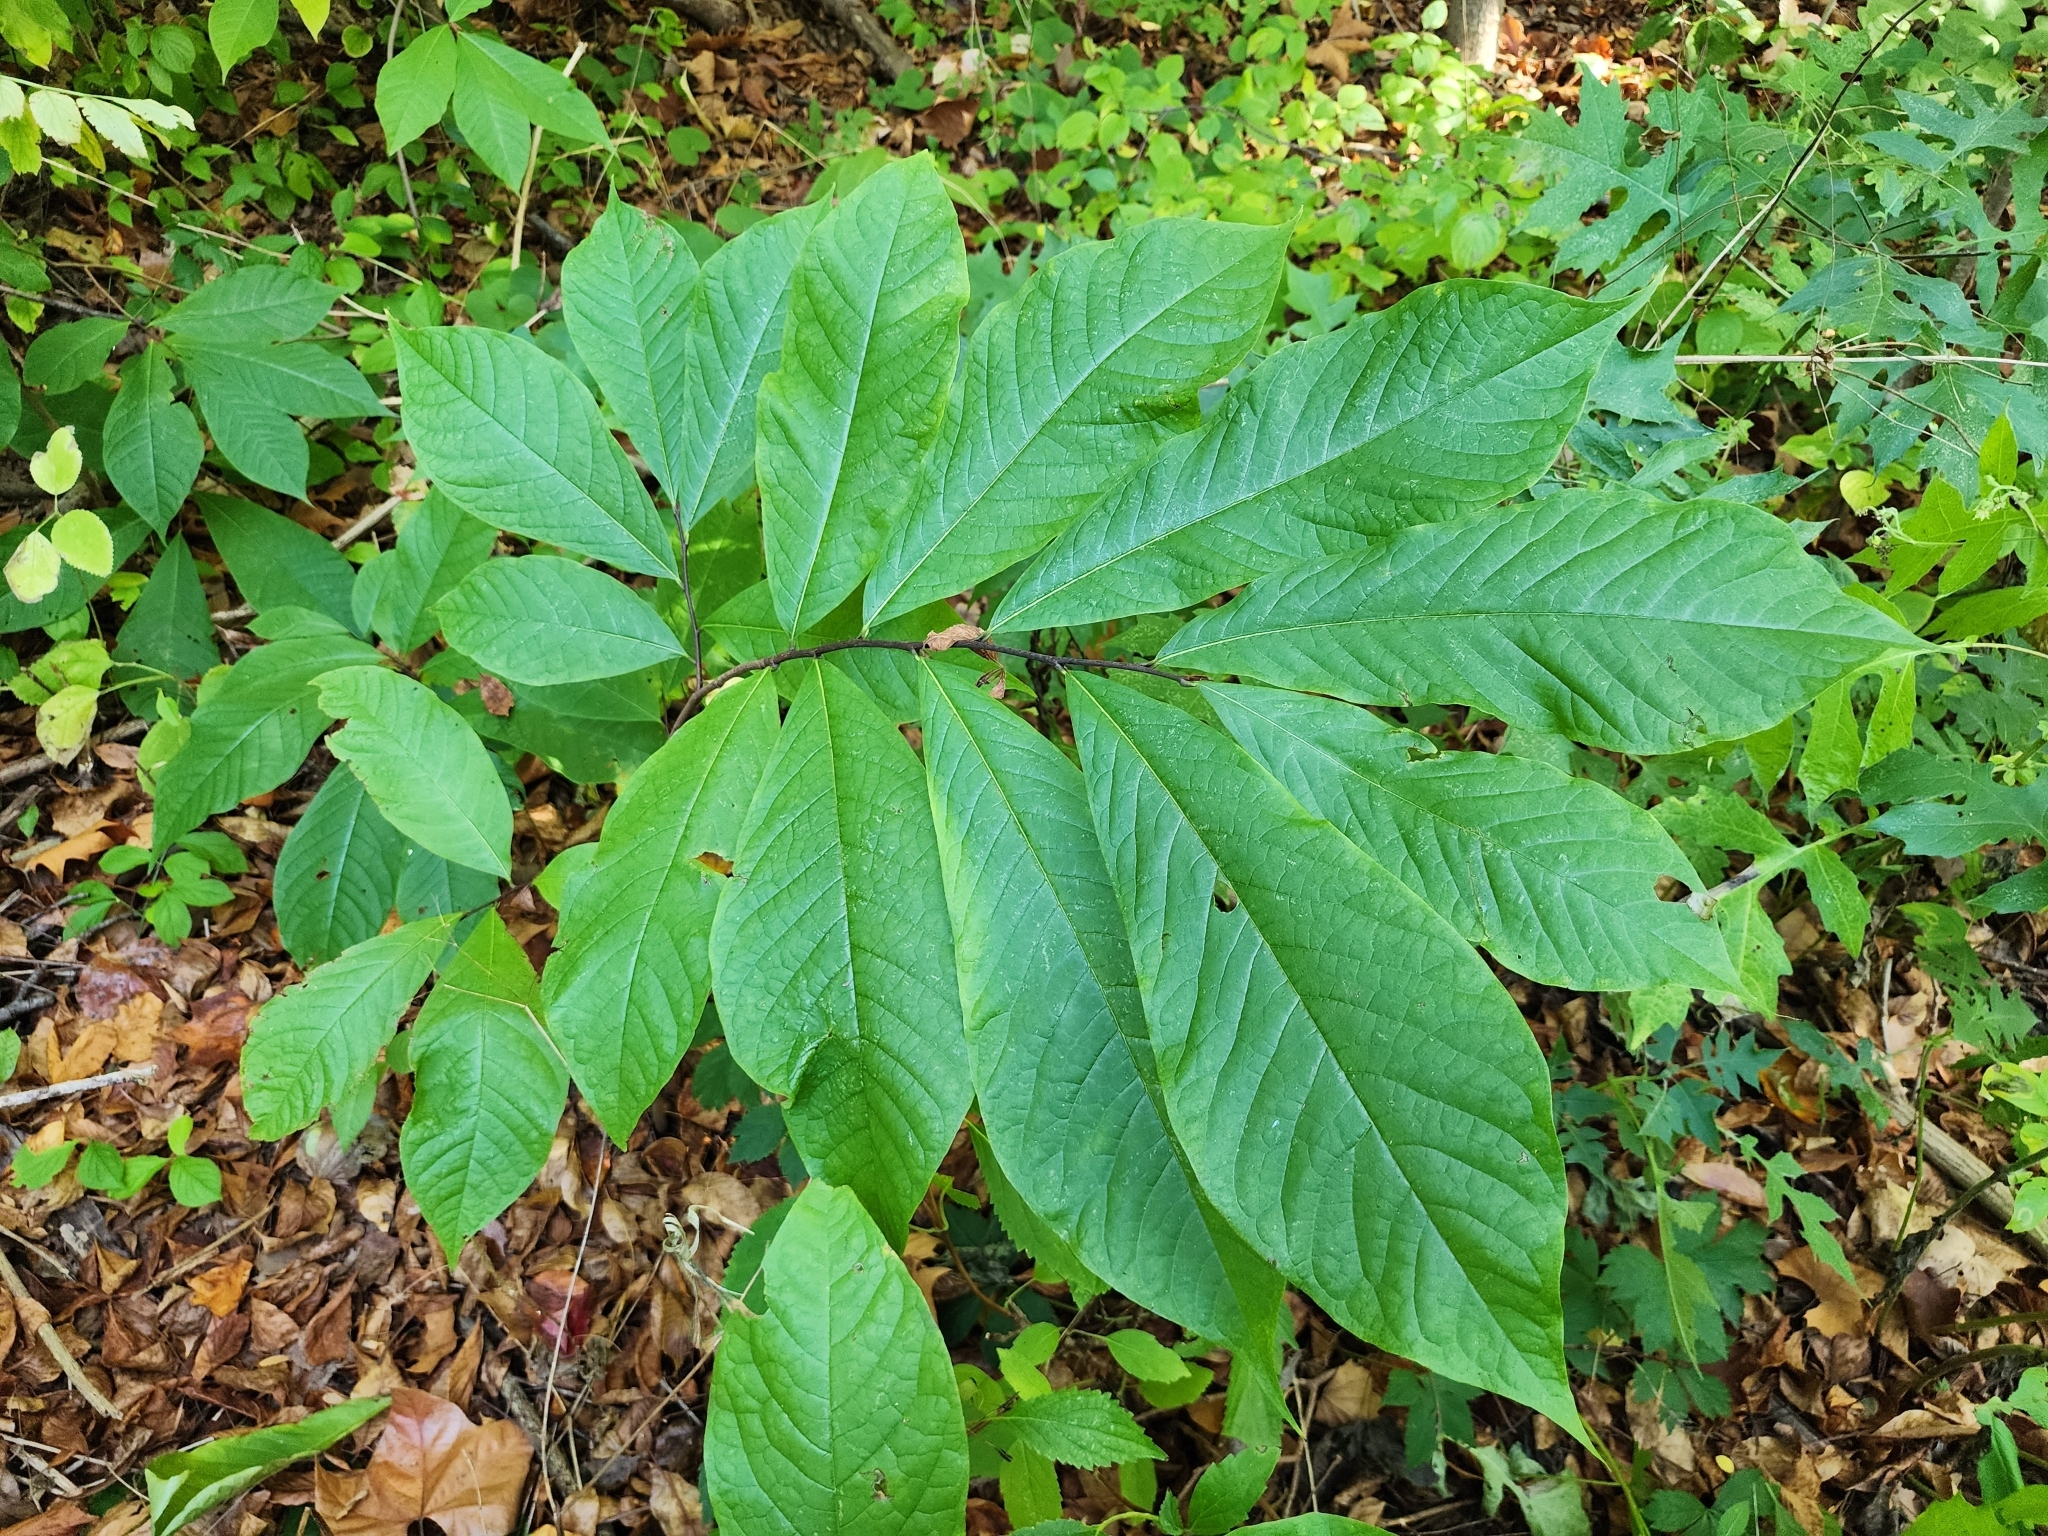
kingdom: Plantae
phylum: Tracheophyta
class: Magnoliopsida
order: Magnoliales
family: Annonaceae
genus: Asimina
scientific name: Asimina triloba
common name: Dog-banana
